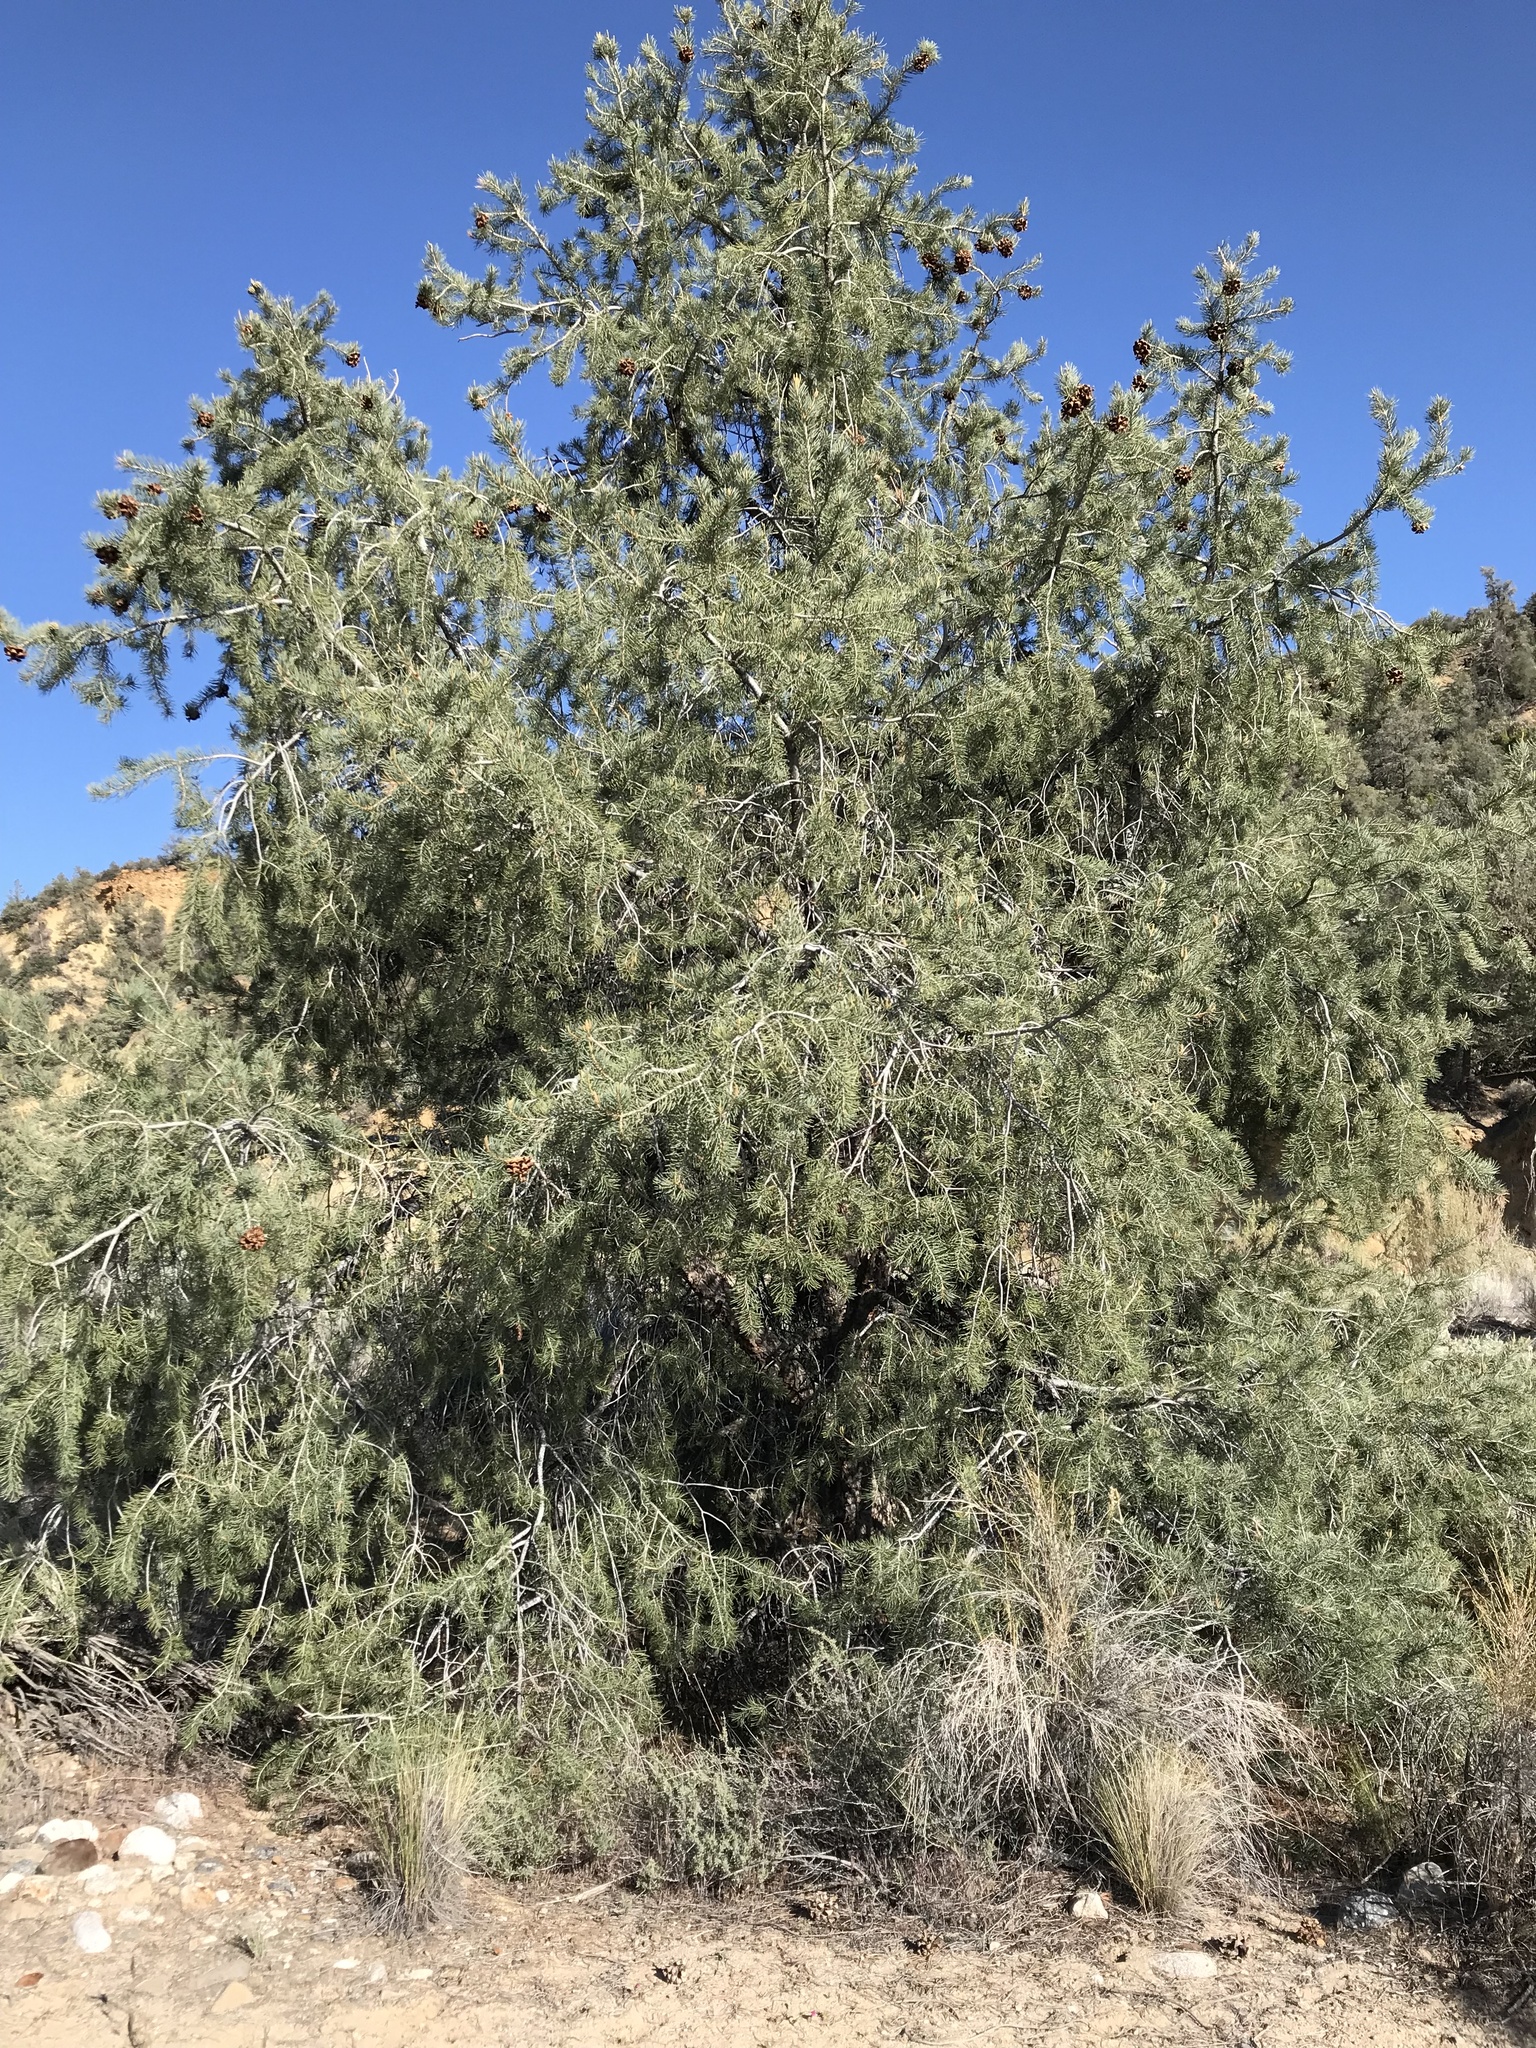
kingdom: Plantae
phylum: Tracheophyta
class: Pinopsida
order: Pinales
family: Pinaceae
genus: Pinus
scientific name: Pinus monophylla
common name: One-leaved nut pine
